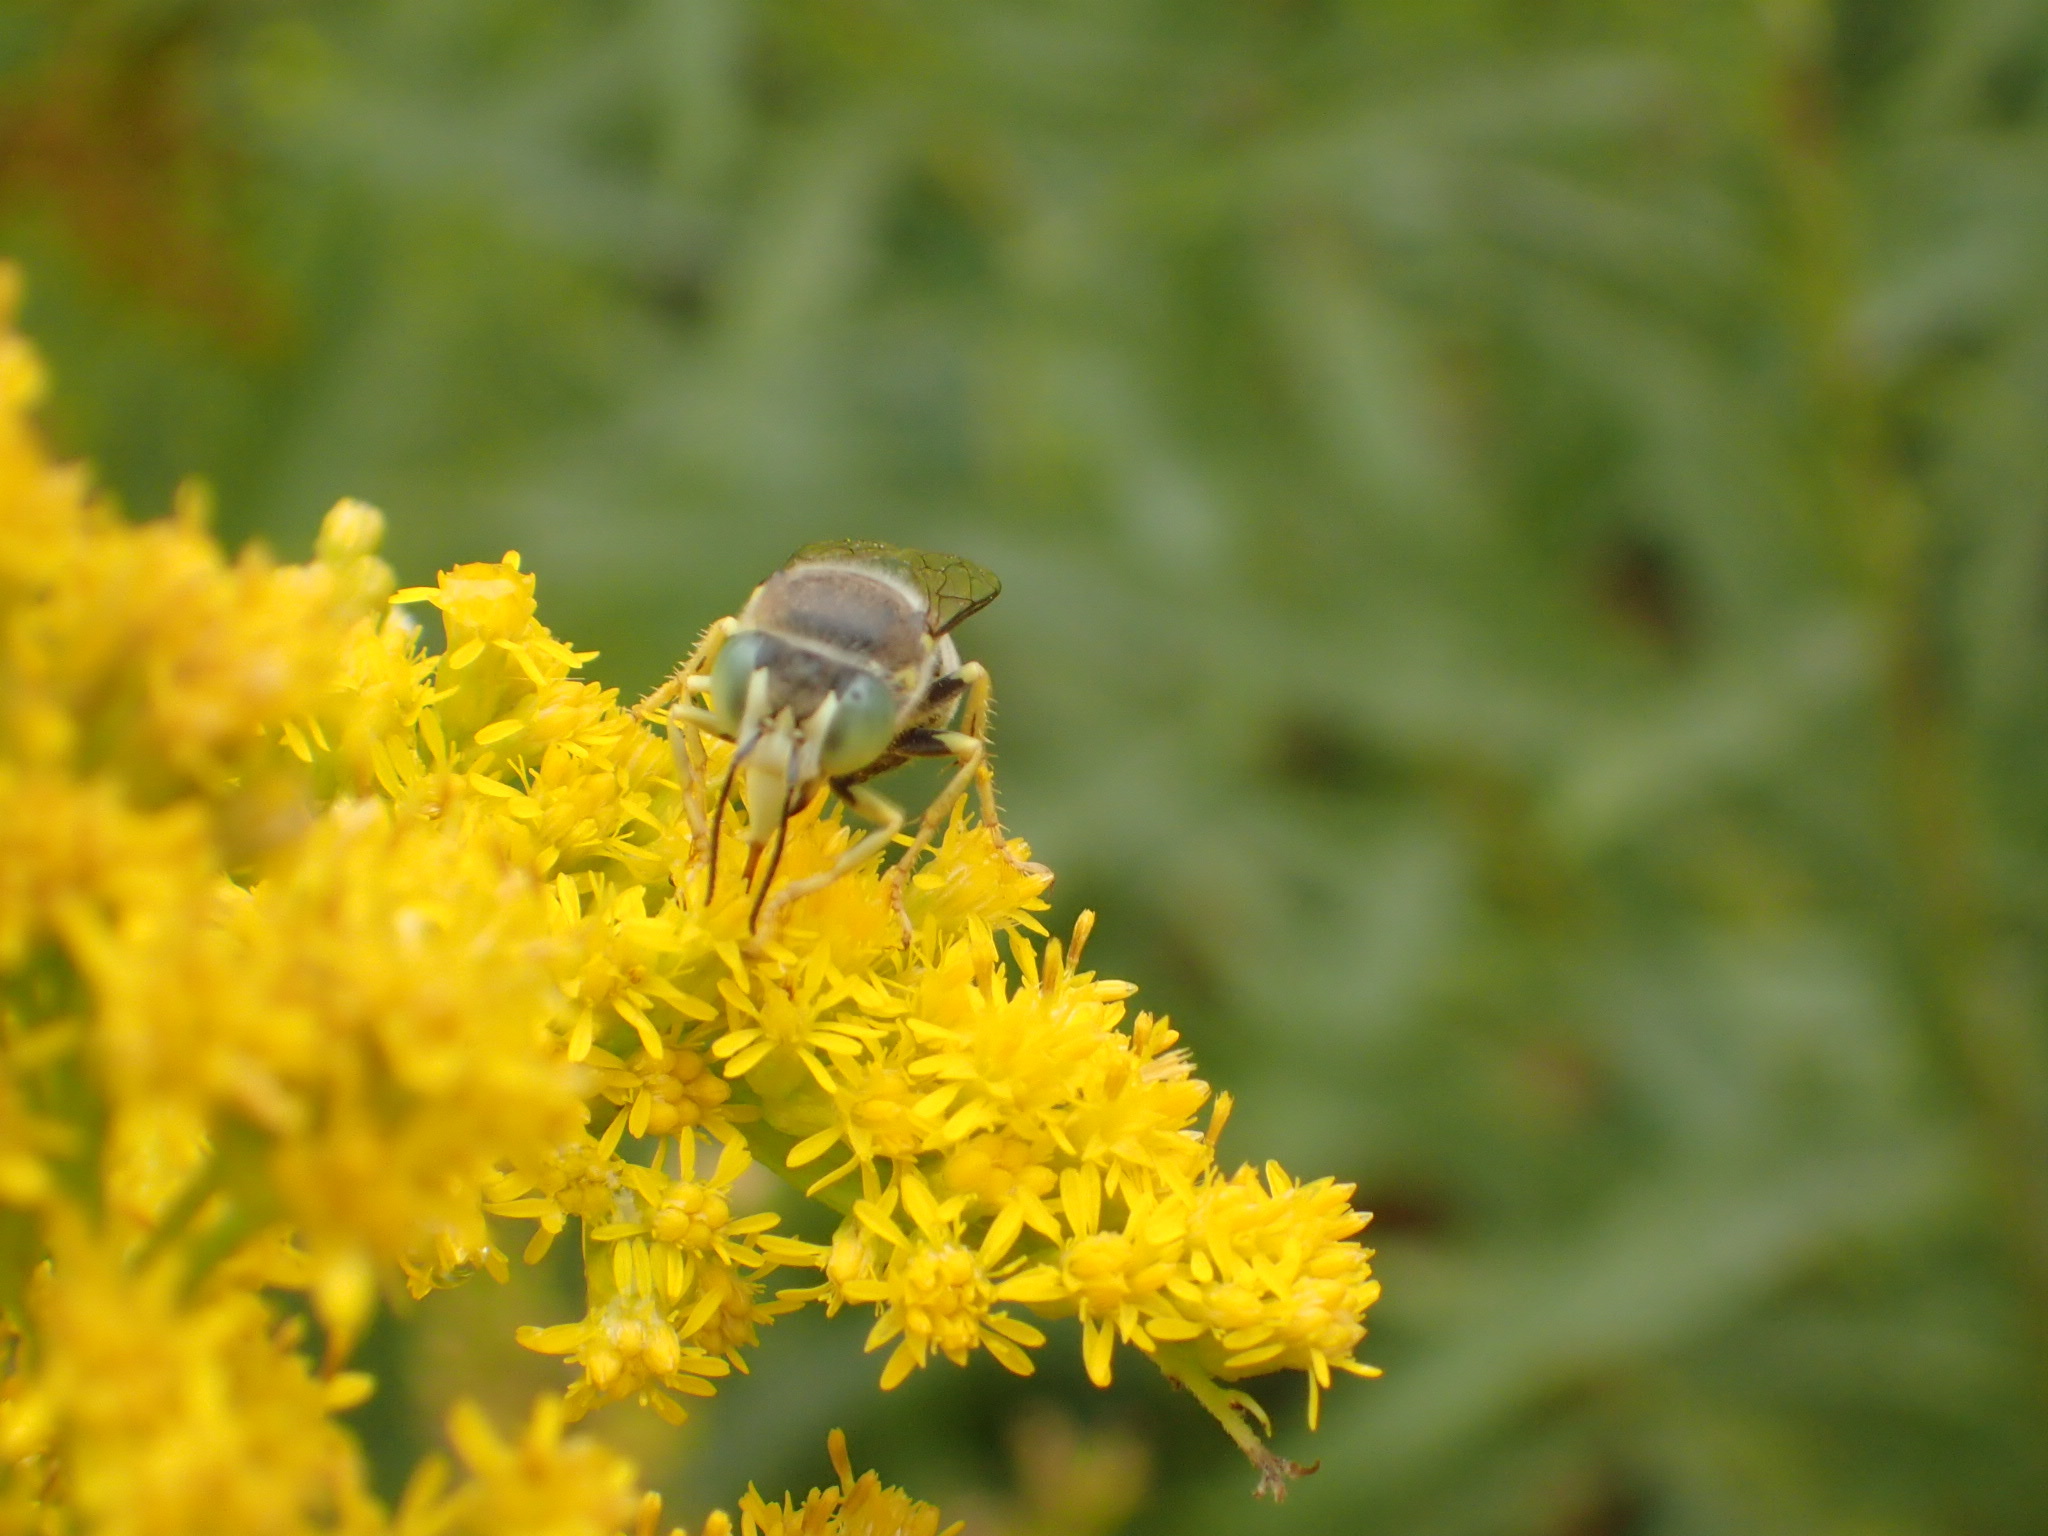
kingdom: Animalia
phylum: Arthropoda
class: Insecta
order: Hymenoptera
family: Crabronidae
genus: Bembix
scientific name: Bembix americana
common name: American sand wasp
